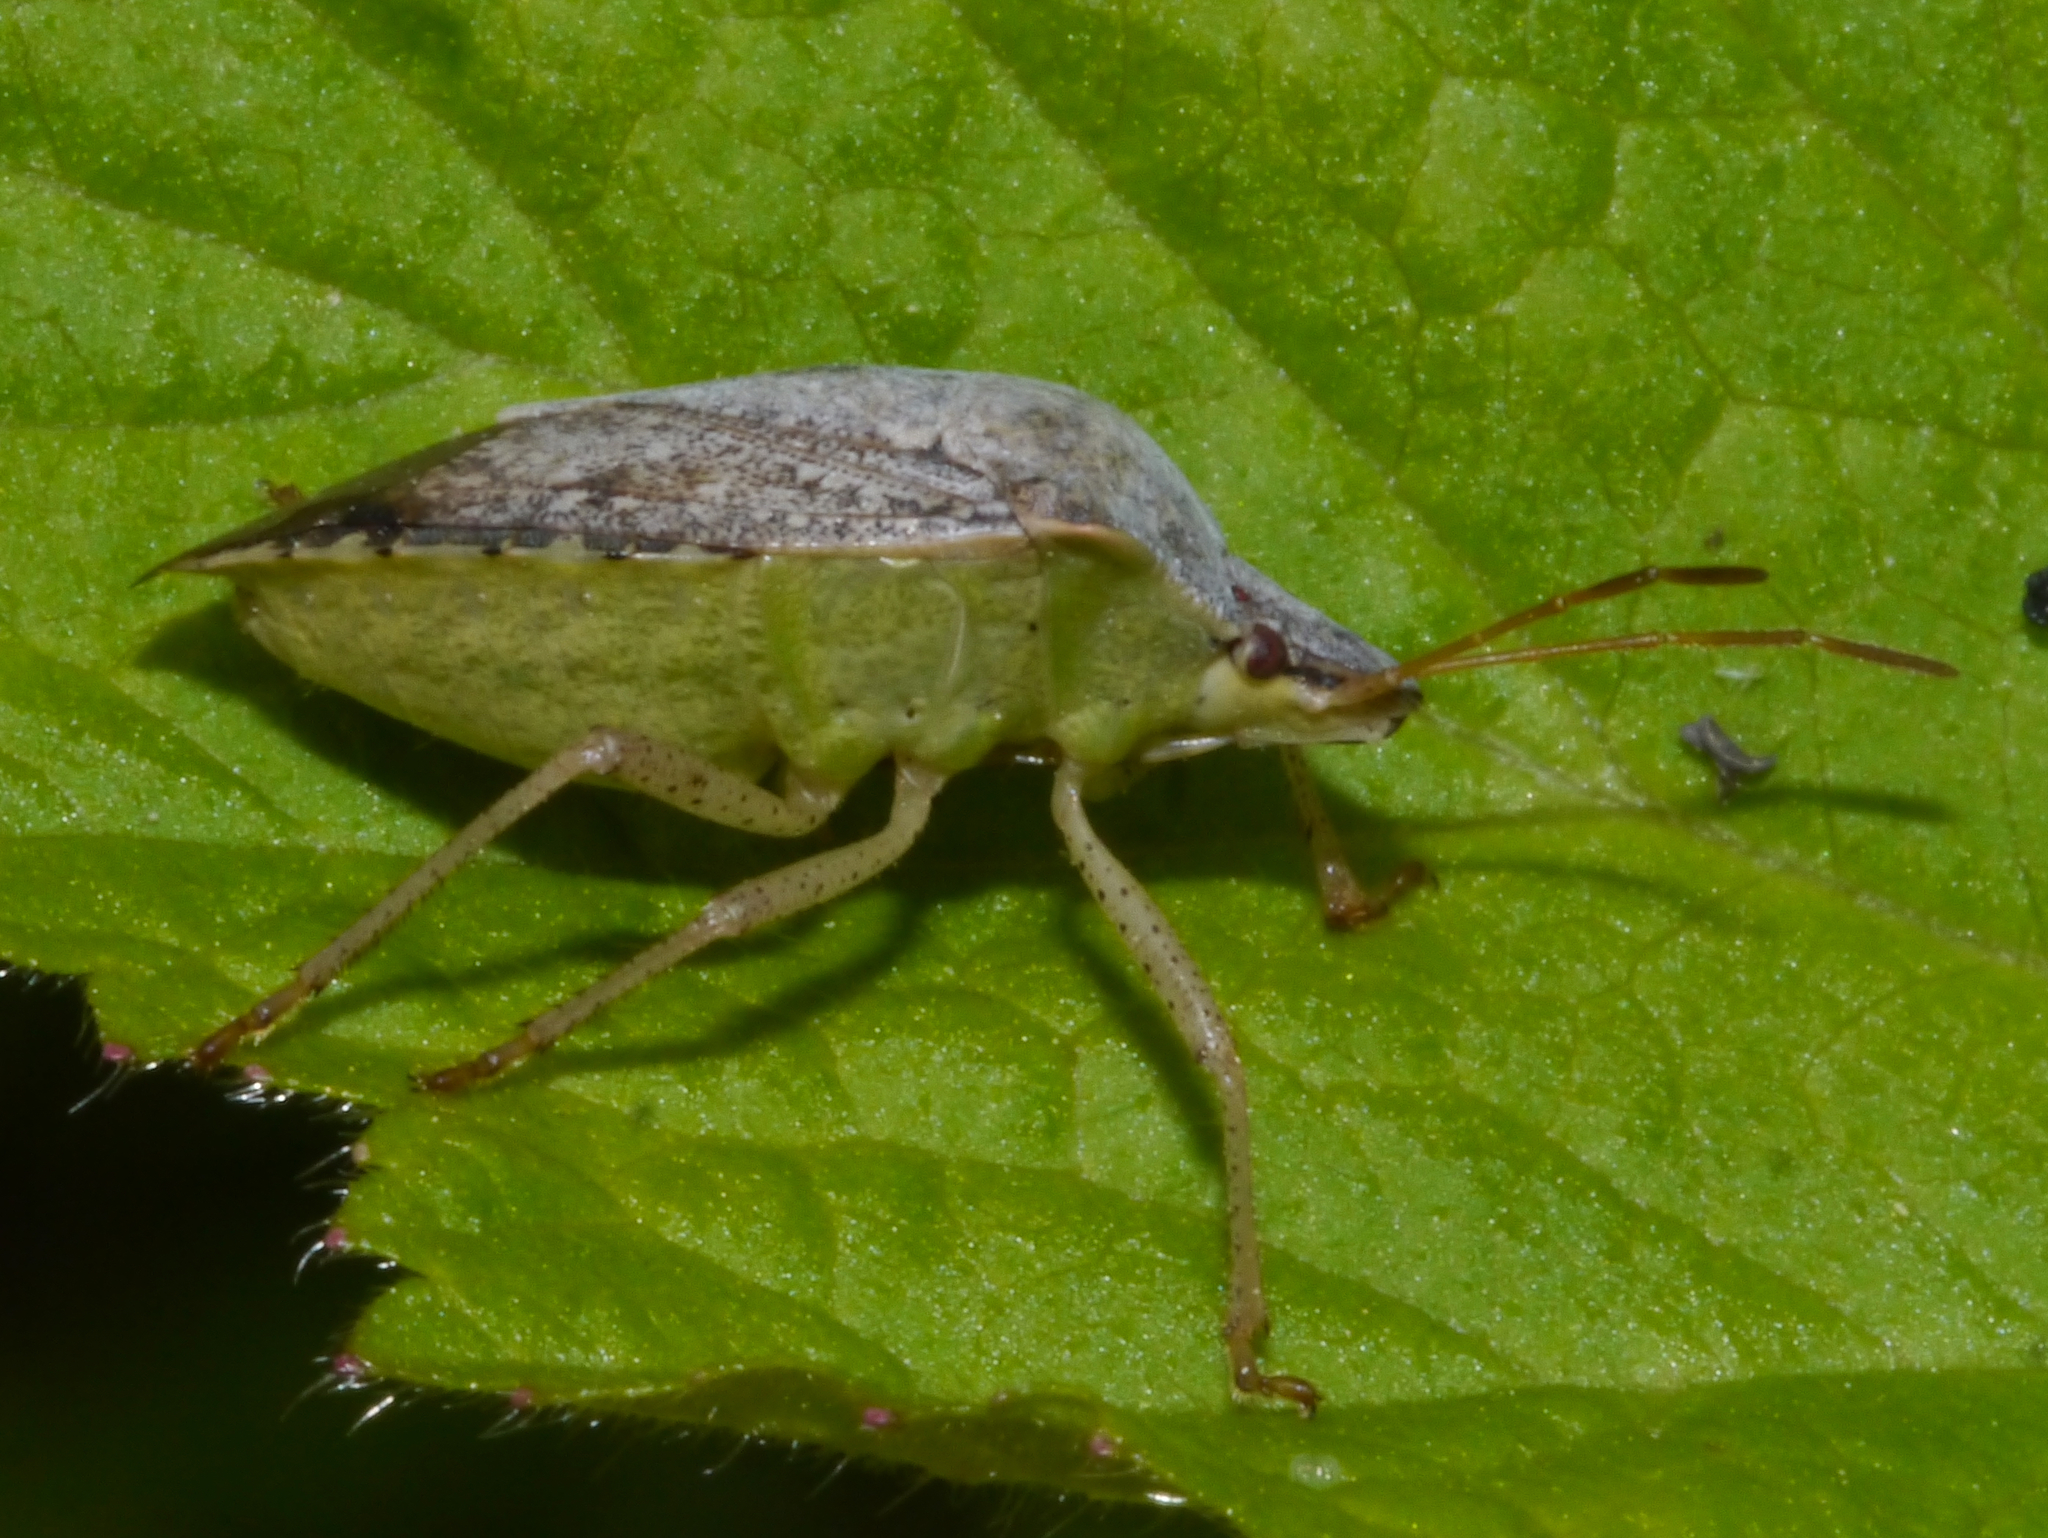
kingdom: Animalia
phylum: Arthropoda
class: Insecta
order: Hemiptera
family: Pentatomidae
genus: Euschistus
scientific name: Euschistus servus
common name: Brown stink bug
